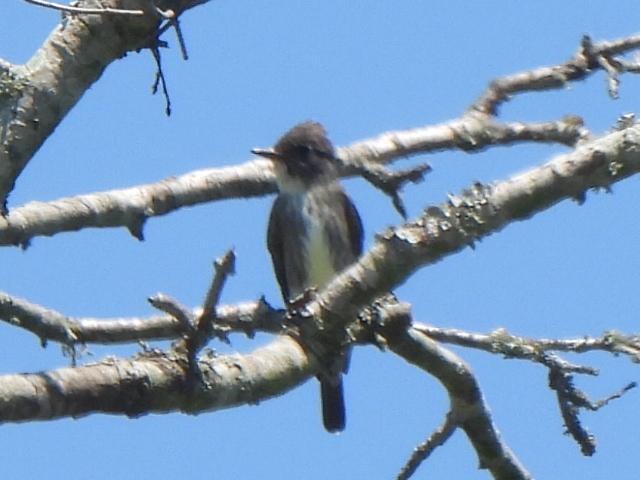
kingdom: Animalia
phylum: Chordata
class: Aves
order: Passeriformes
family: Tyrannidae
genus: Contopus
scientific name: Contopus cooperi
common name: Olive-sided flycatcher
